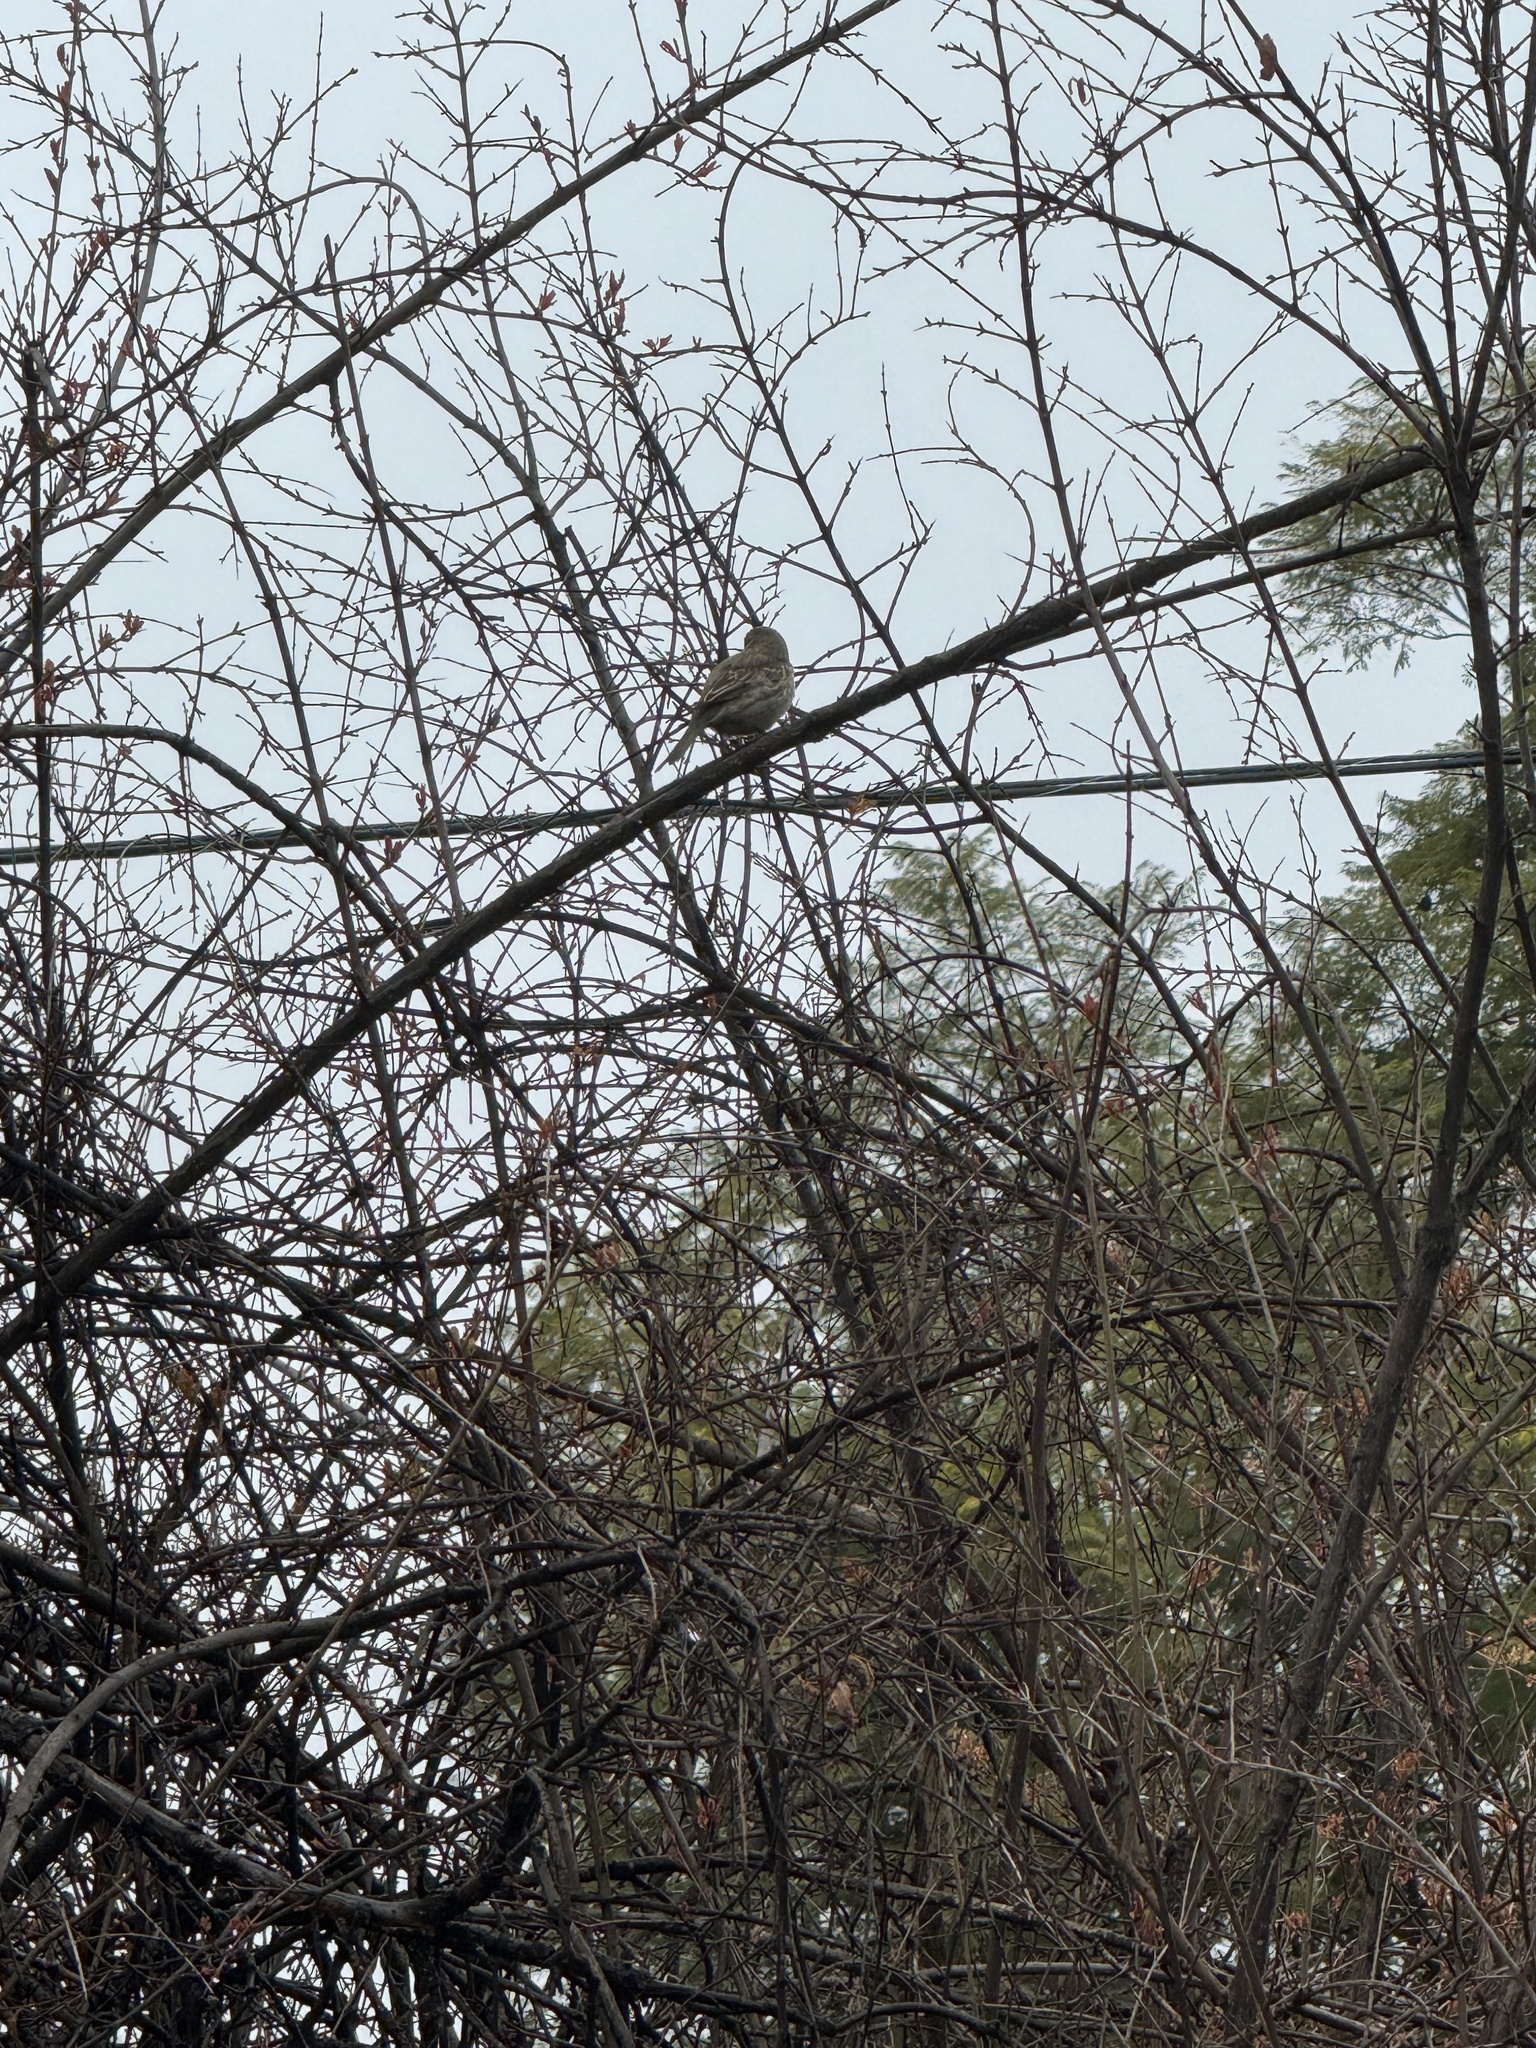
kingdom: Animalia
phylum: Chordata
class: Aves
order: Passeriformes
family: Fringillidae
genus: Haemorhous
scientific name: Haemorhous mexicanus
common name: House finch
